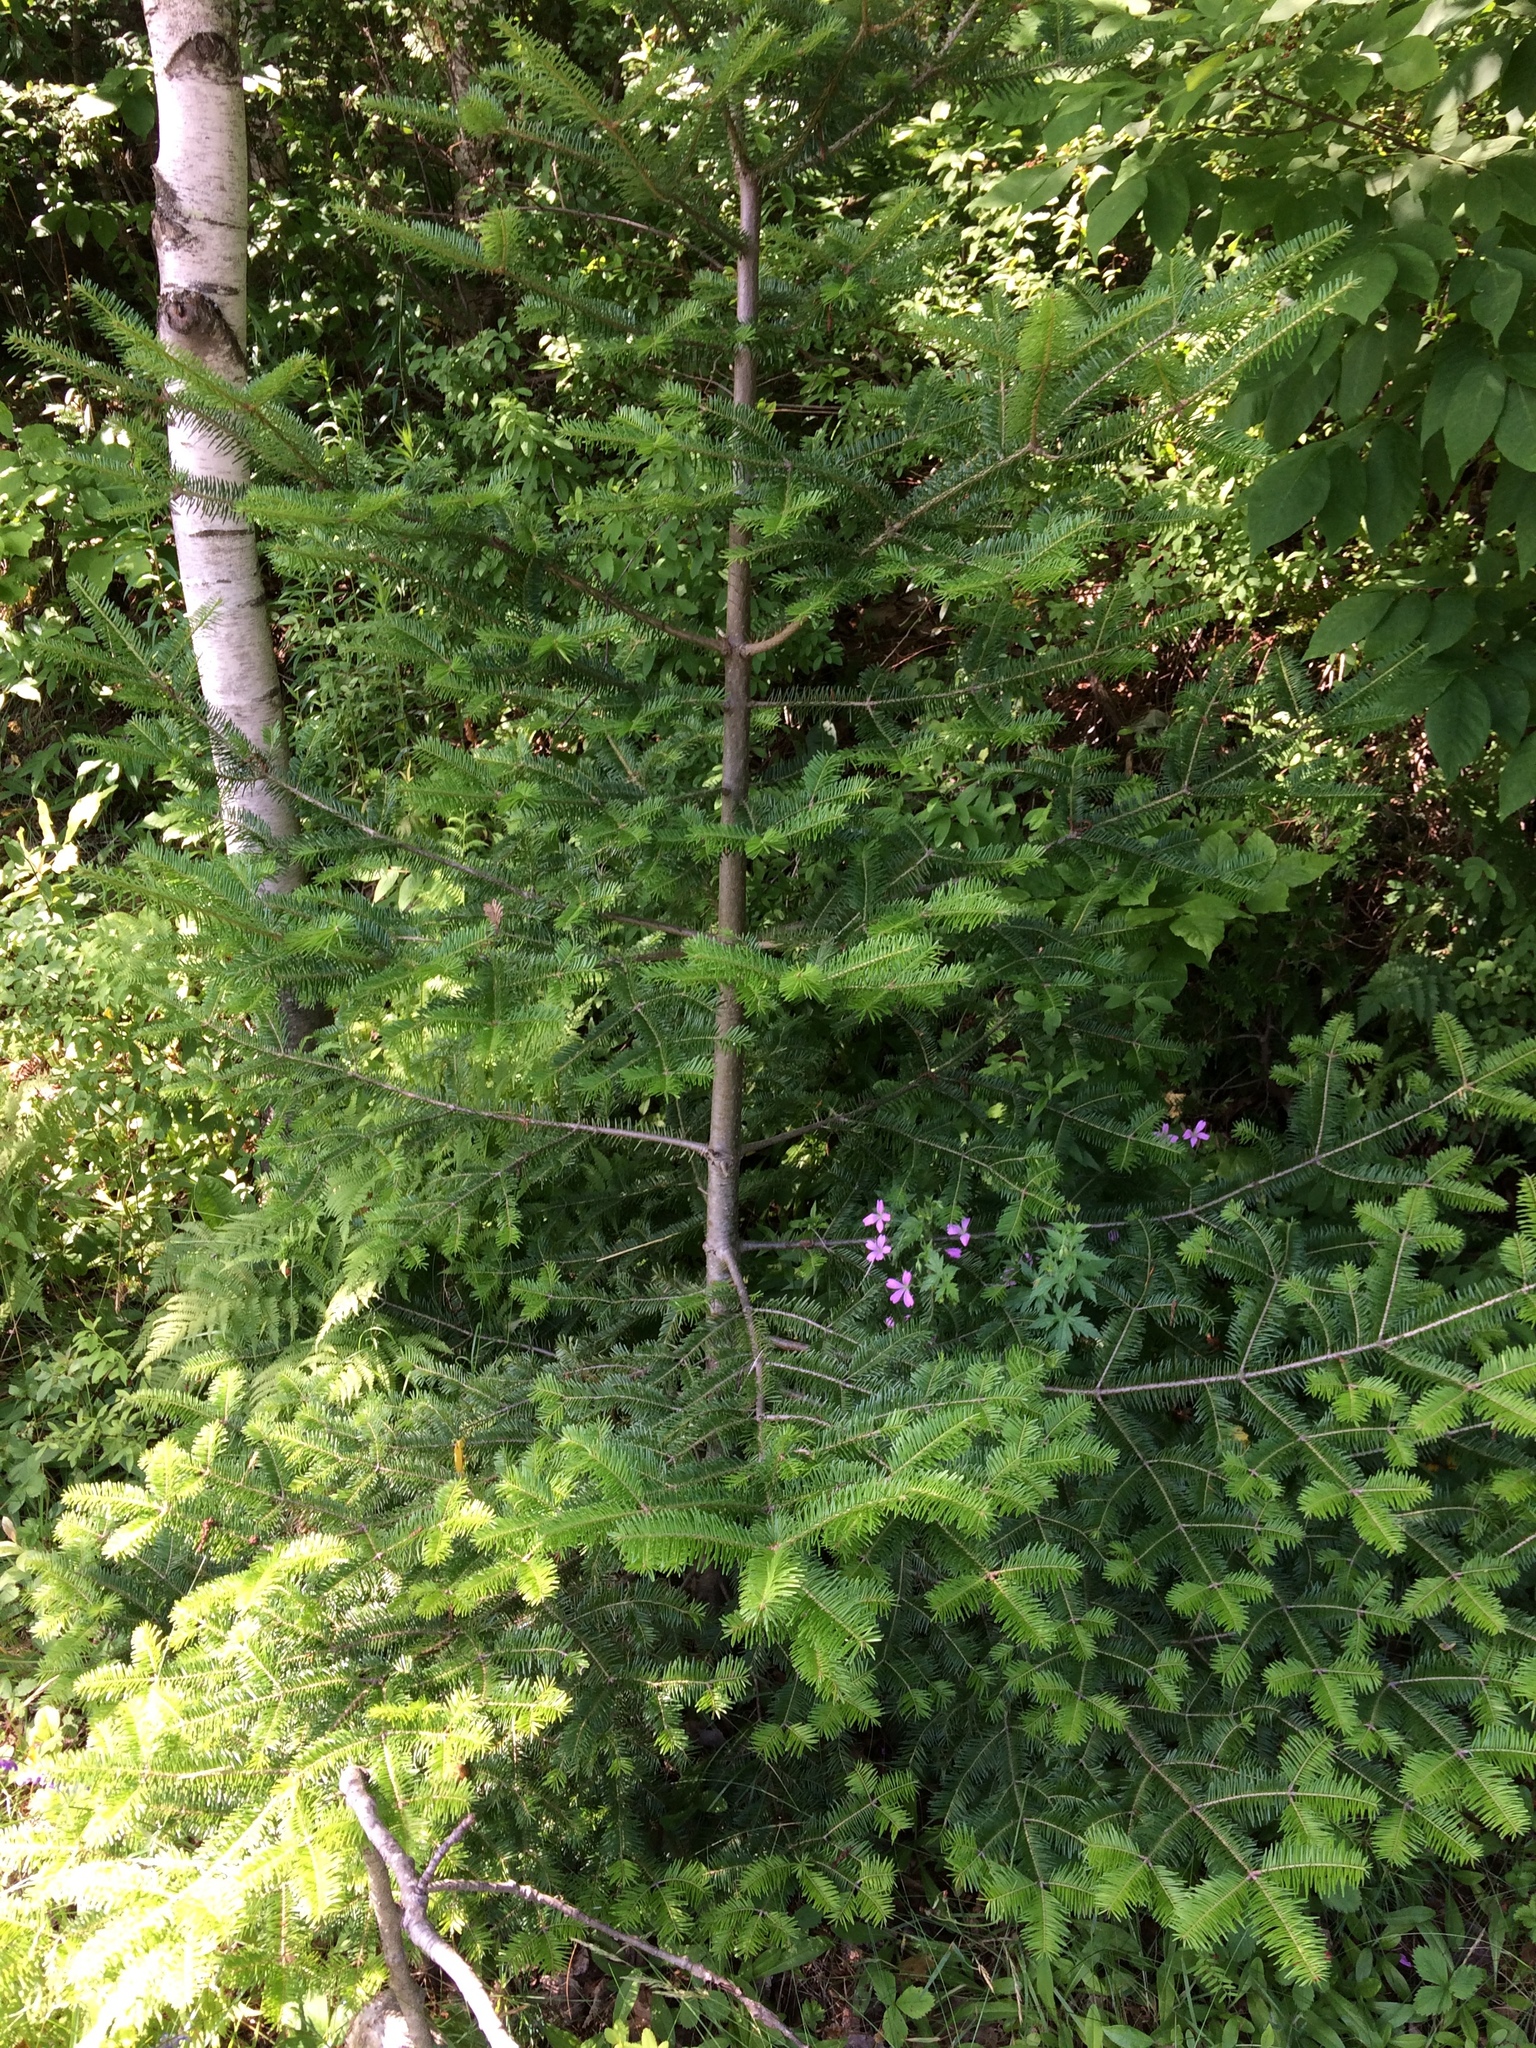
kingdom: Plantae
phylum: Tracheophyta
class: Pinopsida
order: Pinales
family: Pinaceae
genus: Abies
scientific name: Abies balsamea
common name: Balsam fir
